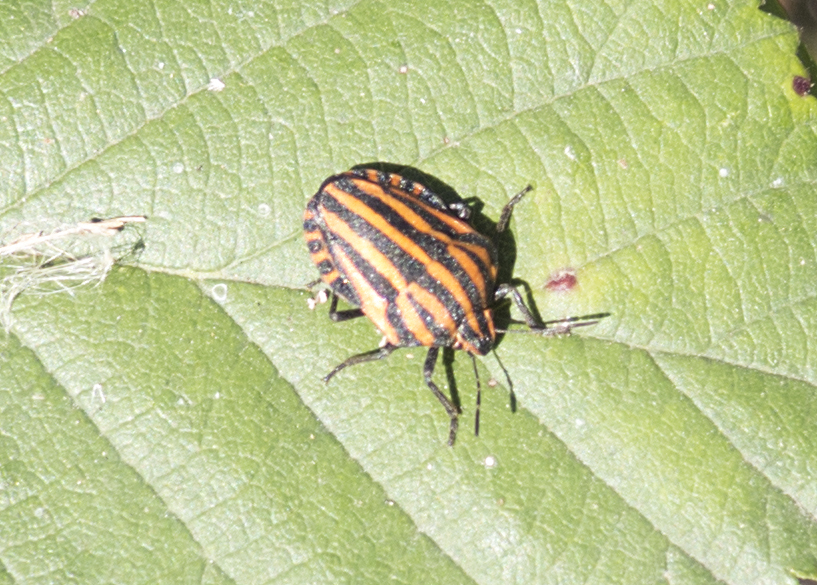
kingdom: Animalia
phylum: Arthropoda
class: Insecta
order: Hemiptera
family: Pentatomidae
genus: Graphosoma
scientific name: Graphosoma italicum
